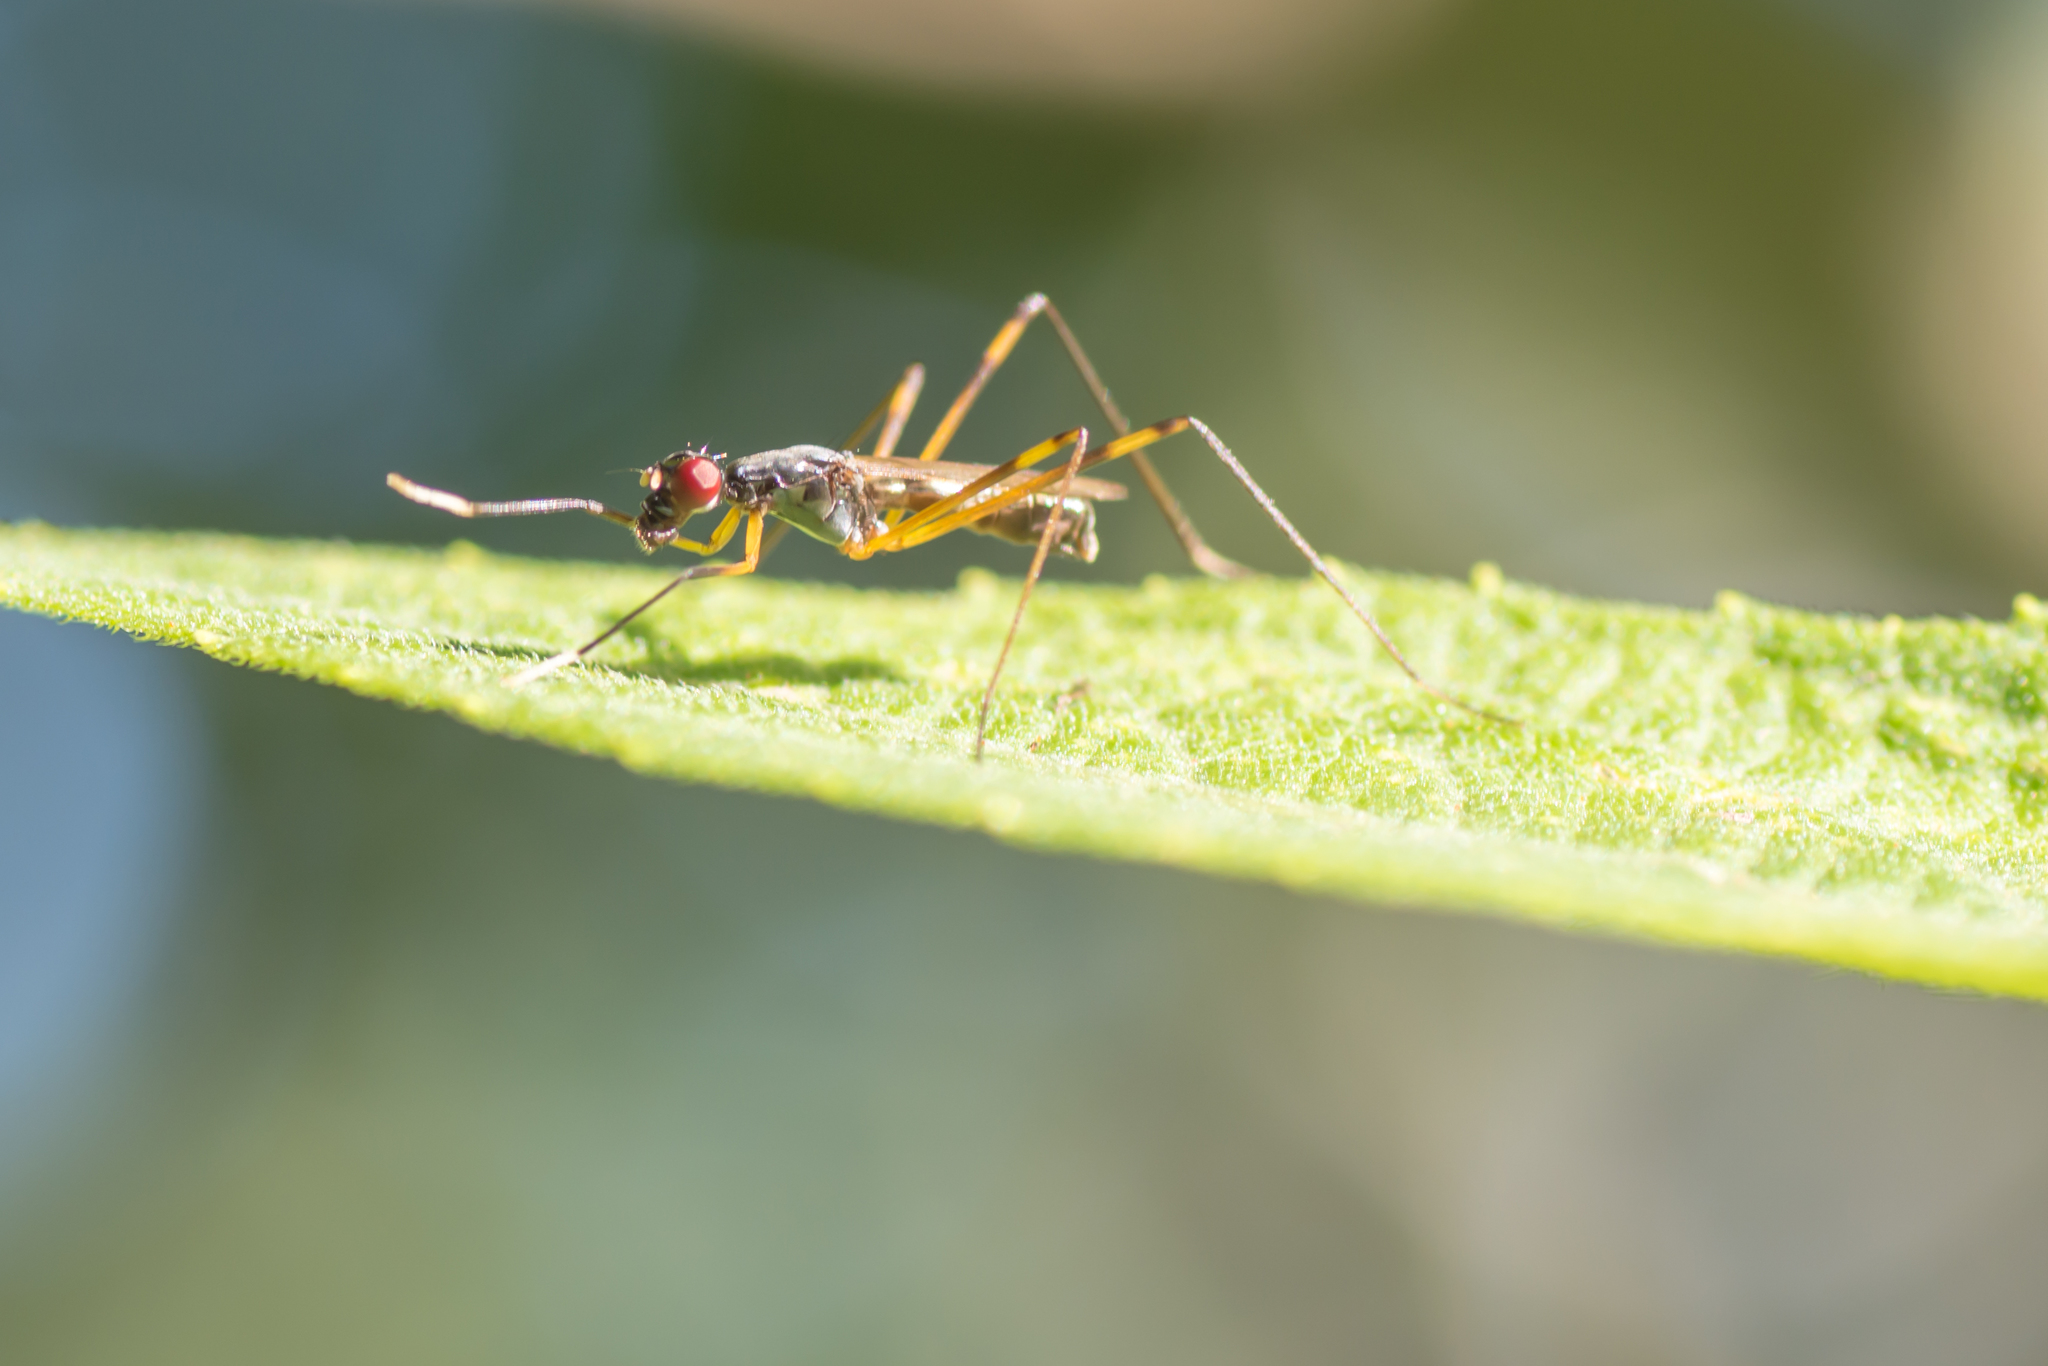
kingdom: Animalia
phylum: Arthropoda
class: Insecta
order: Diptera
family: Micropezidae
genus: Rainieria
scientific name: Rainieria antennaepes
